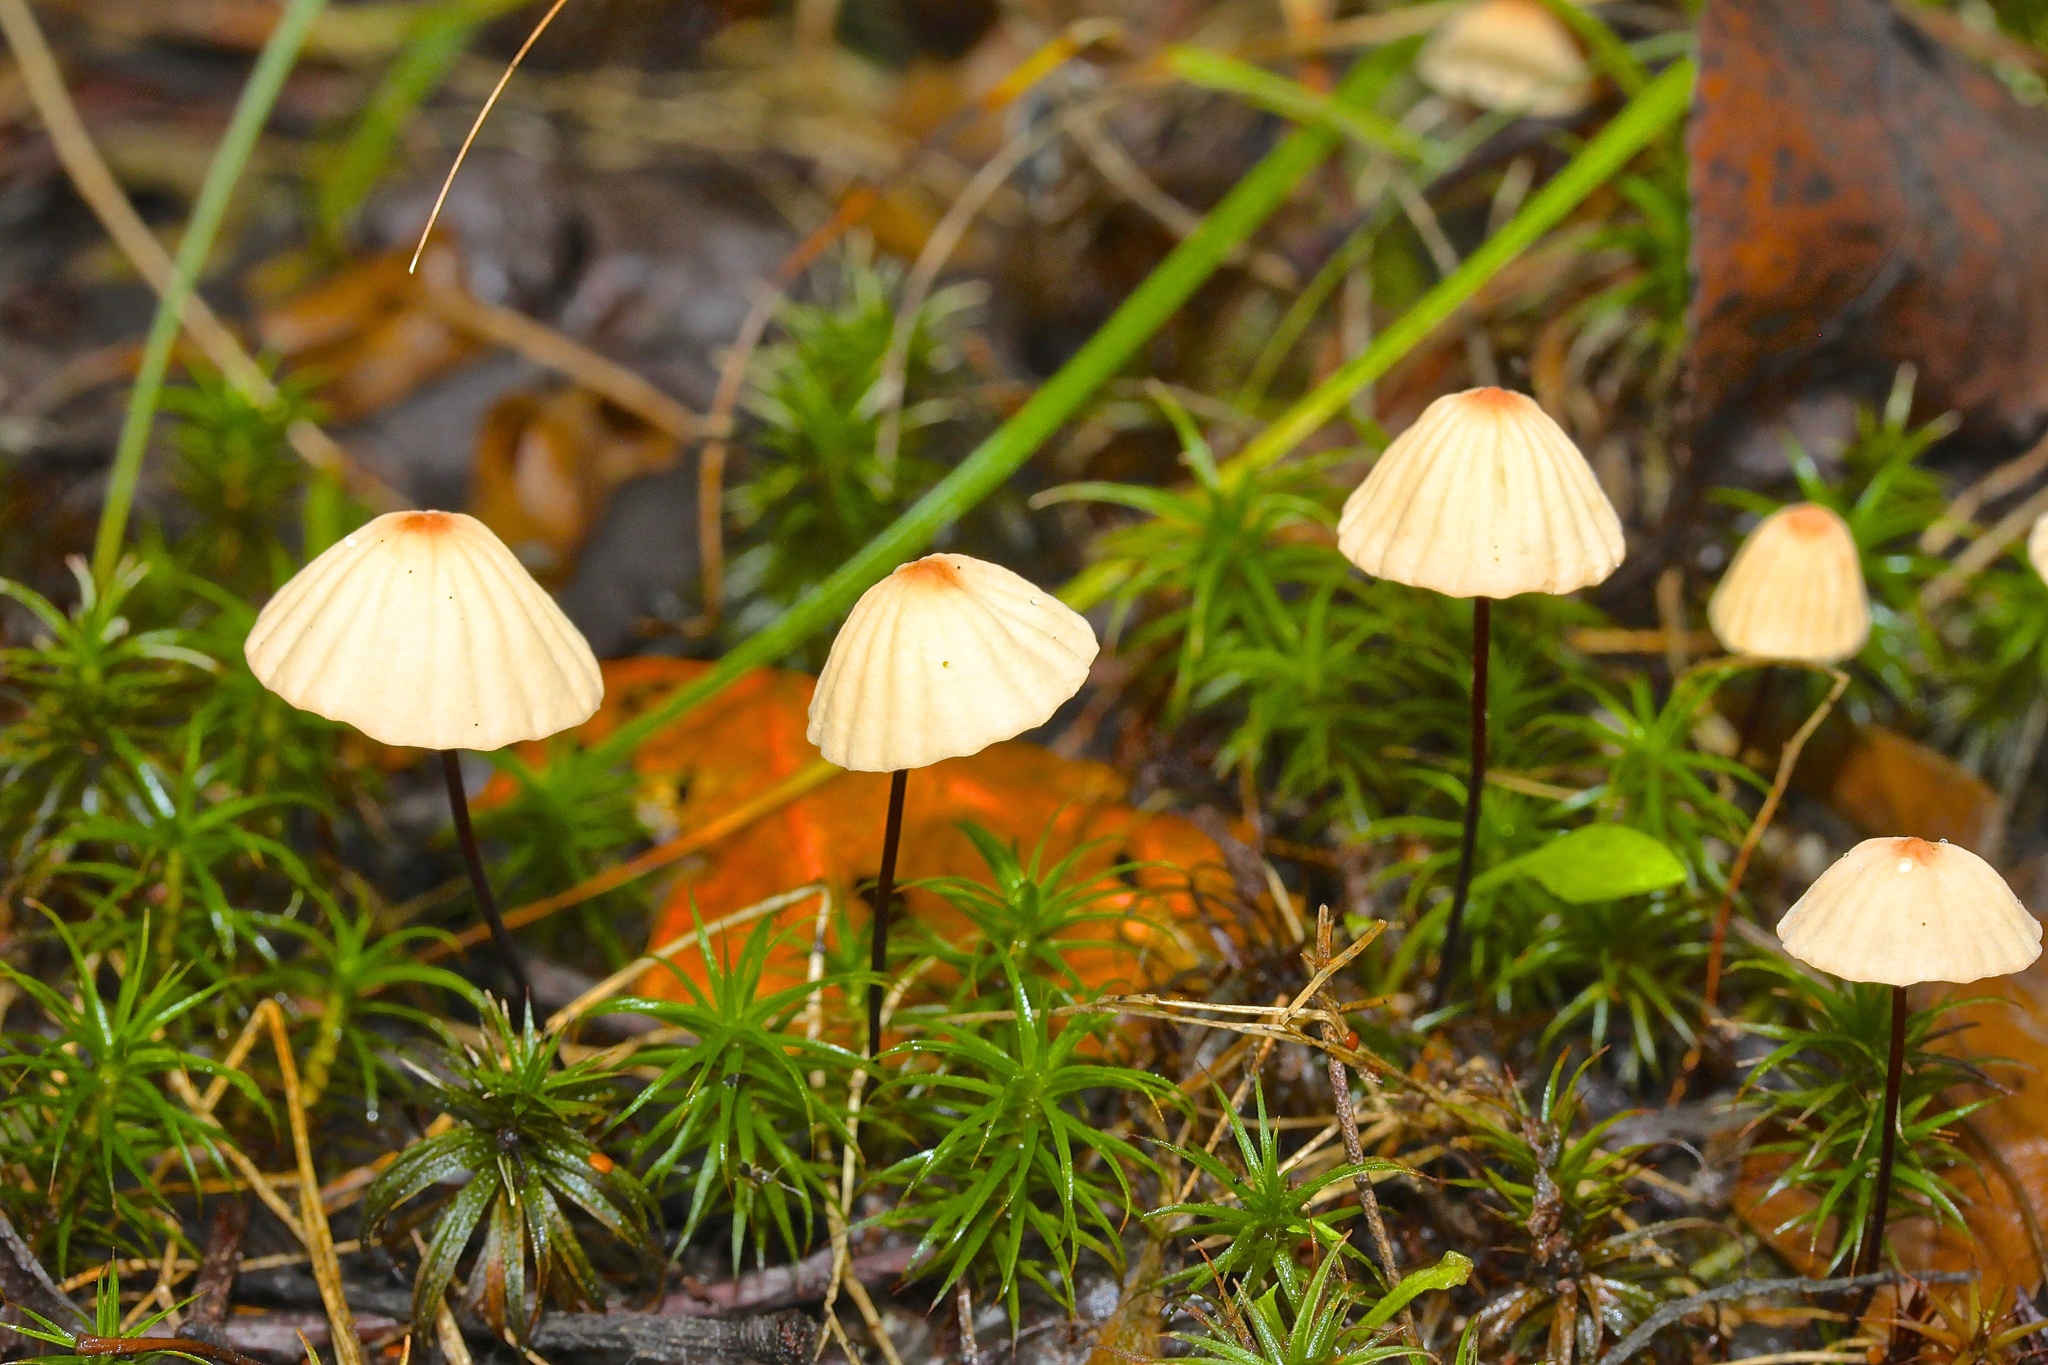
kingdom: Fungi
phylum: Basidiomycota
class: Agaricomycetes
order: Agaricales
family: Marasmiaceae
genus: Marasmius
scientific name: Marasmius siccus
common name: Orange pinwheel
